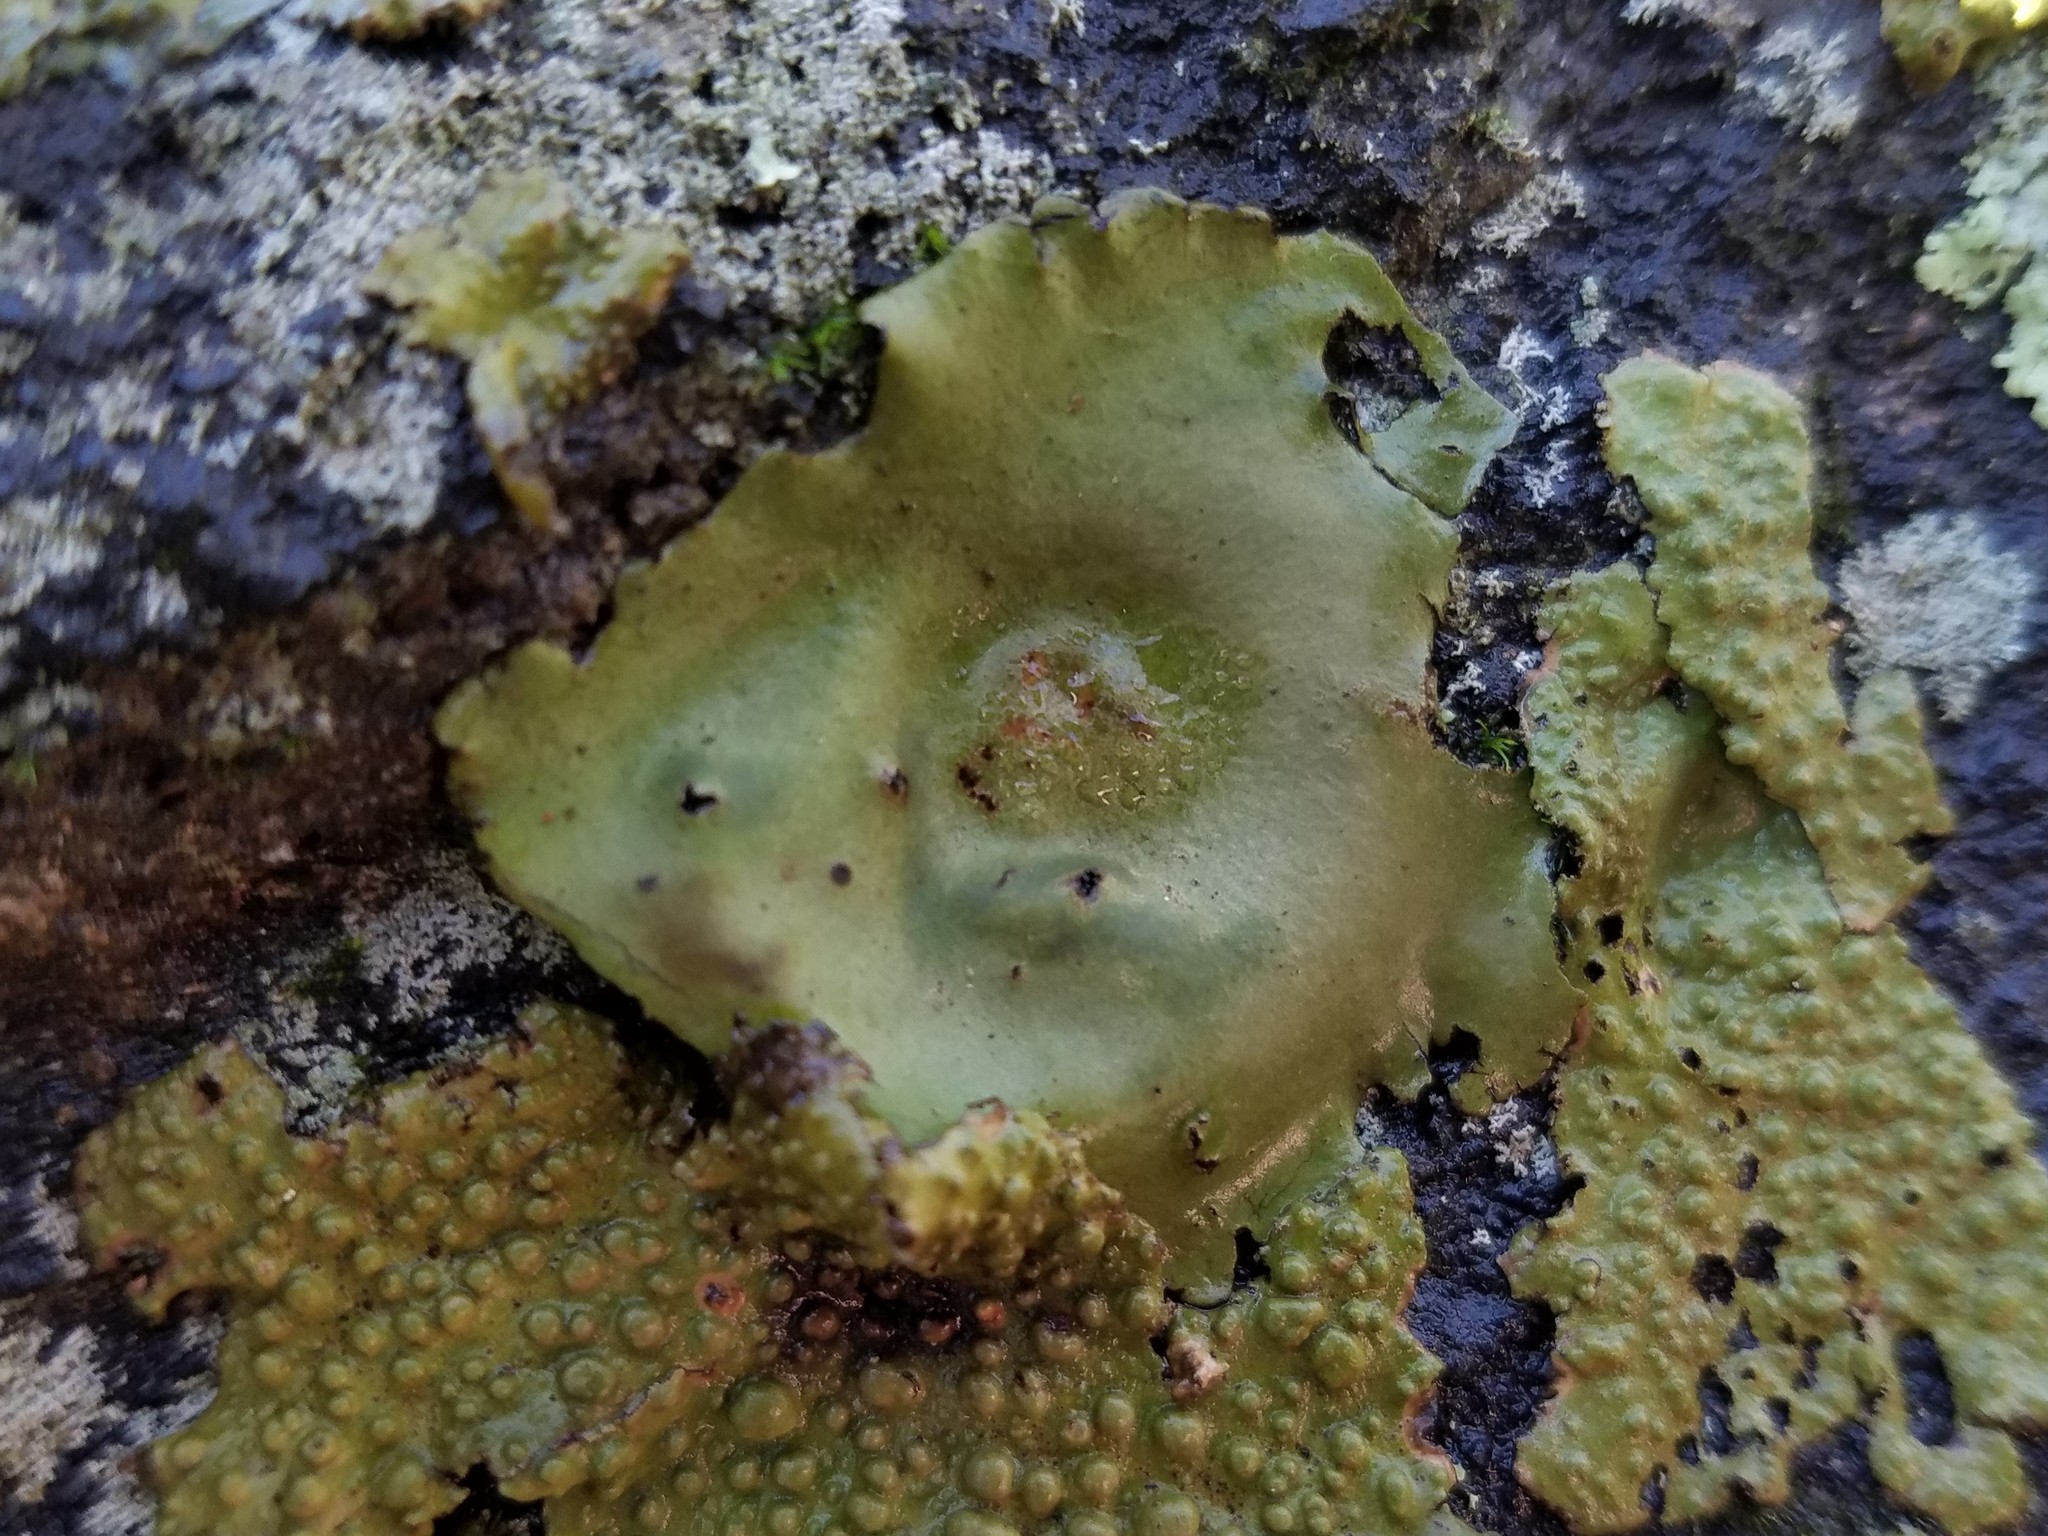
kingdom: Fungi
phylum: Ascomycota
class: Lecanoromycetes
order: Umbilicariales
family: Umbilicariaceae
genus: Umbilicaria
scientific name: Umbilicaria mammulata
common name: Smooth rock tripe
